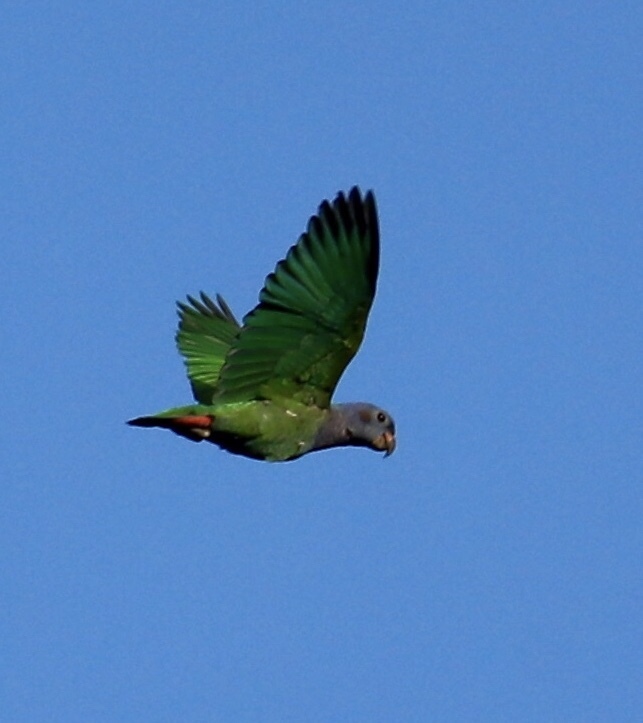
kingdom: Animalia
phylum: Chordata
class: Aves
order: Psittaciformes
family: Psittacidae
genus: Pionus
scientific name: Pionus menstruus
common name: Blue-headed parrot
